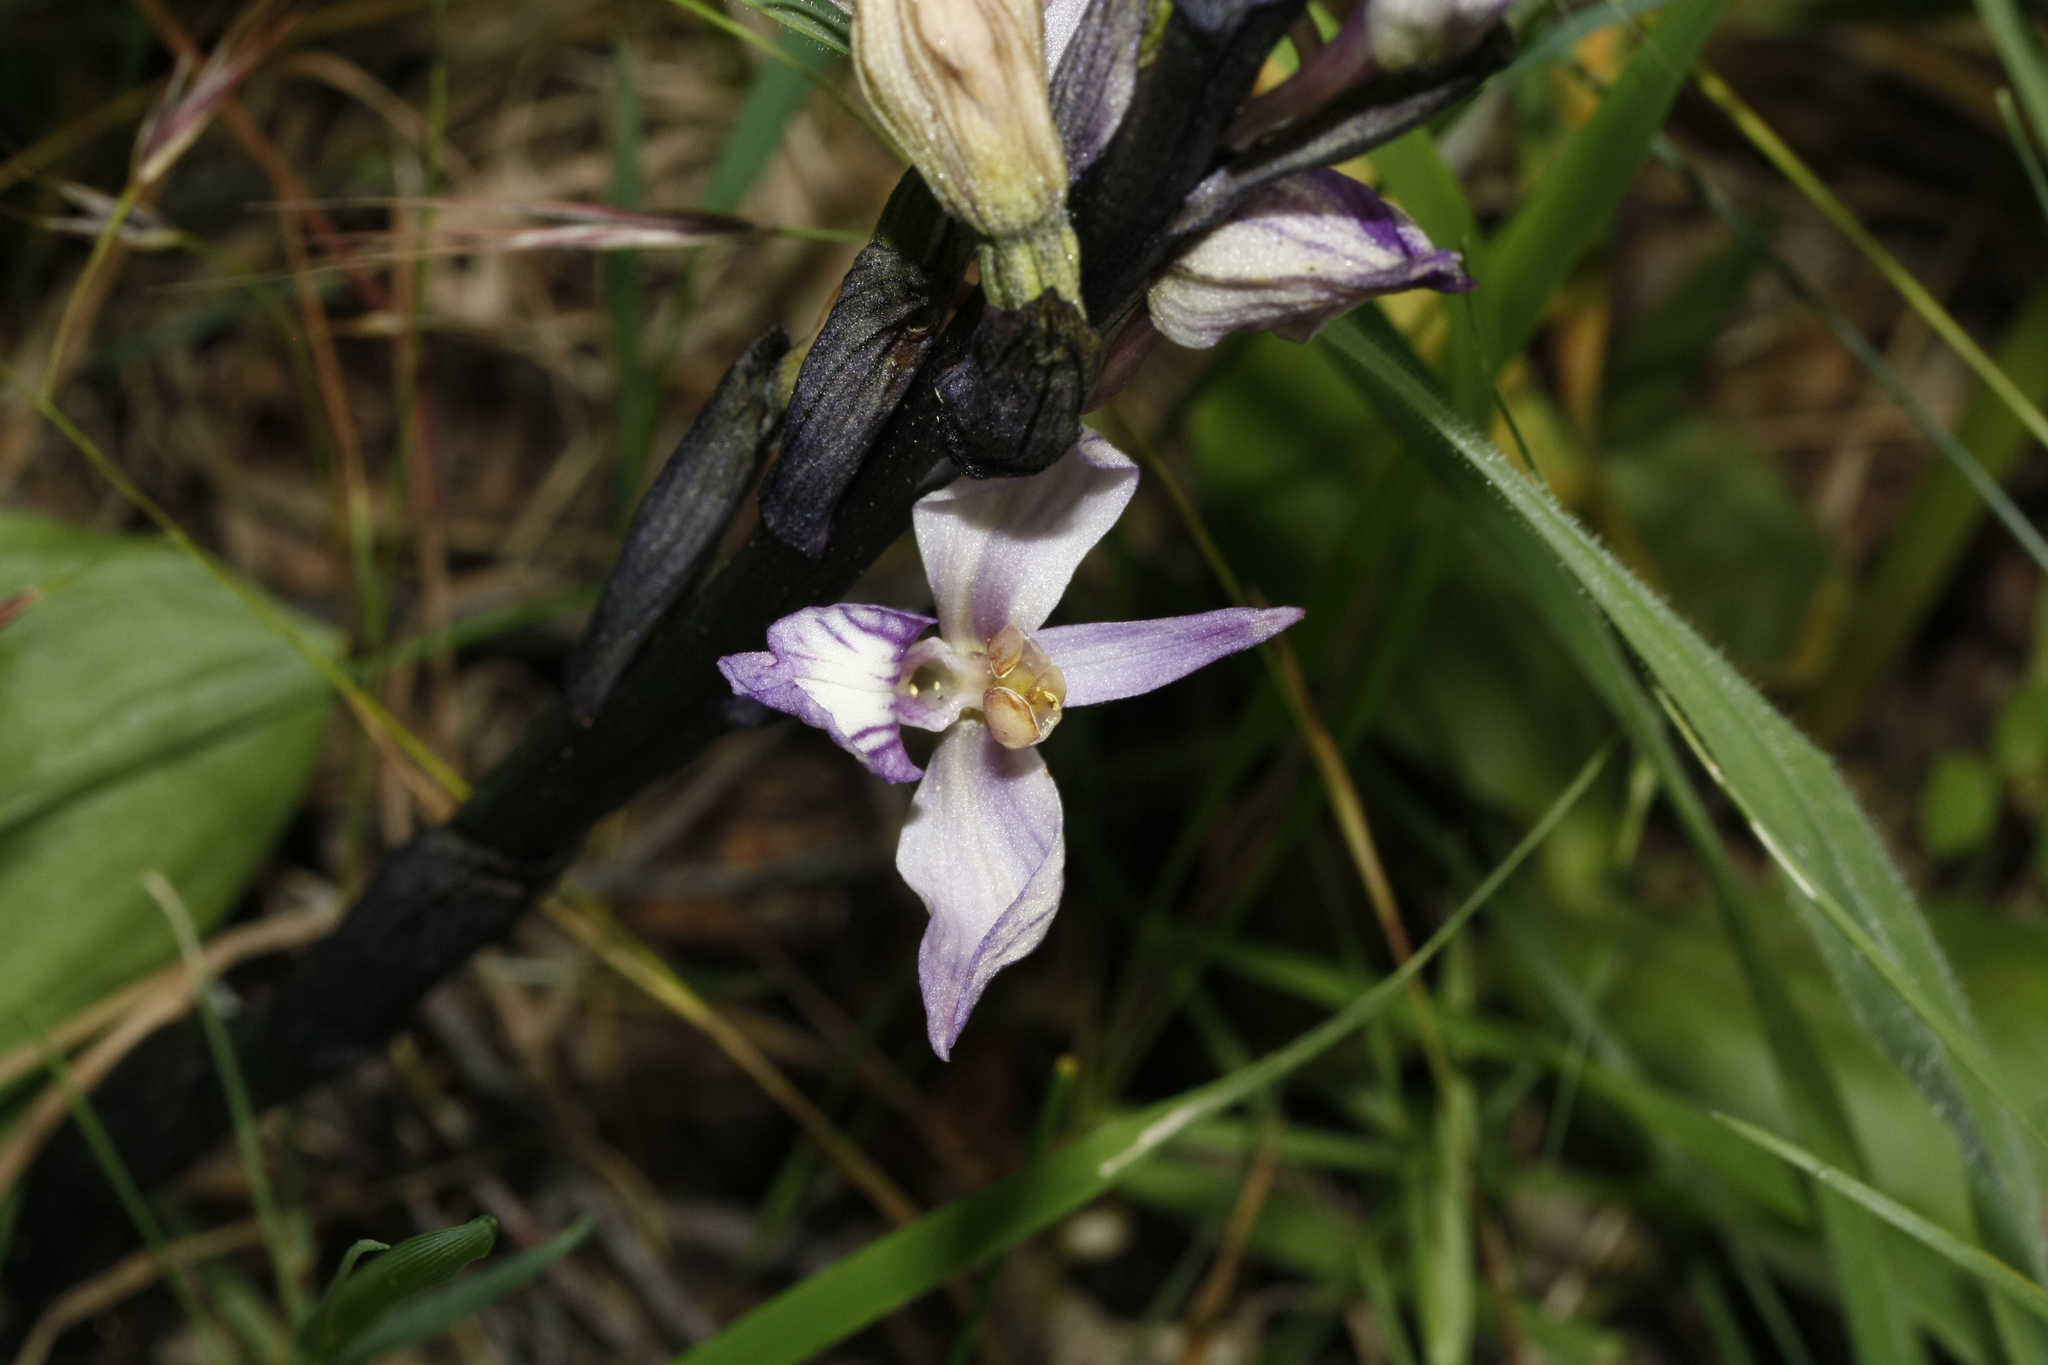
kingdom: Plantae
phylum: Tracheophyta
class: Liliopsida
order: Asparagales
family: Orchidaceae
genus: Limodorum
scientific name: Limodorum abortivum
